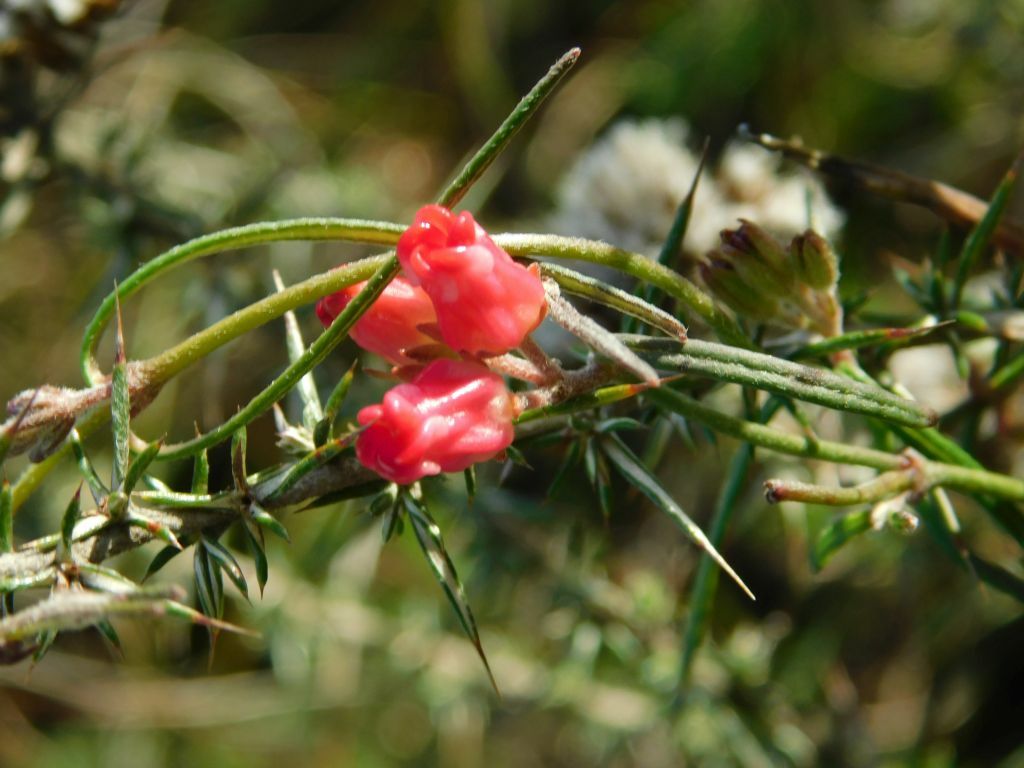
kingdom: Plantae
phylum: Tracheophyta
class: Magnoliopsida
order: Gentianales
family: Apocynaceae
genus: Microloma
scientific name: Microloma tenuifolium
